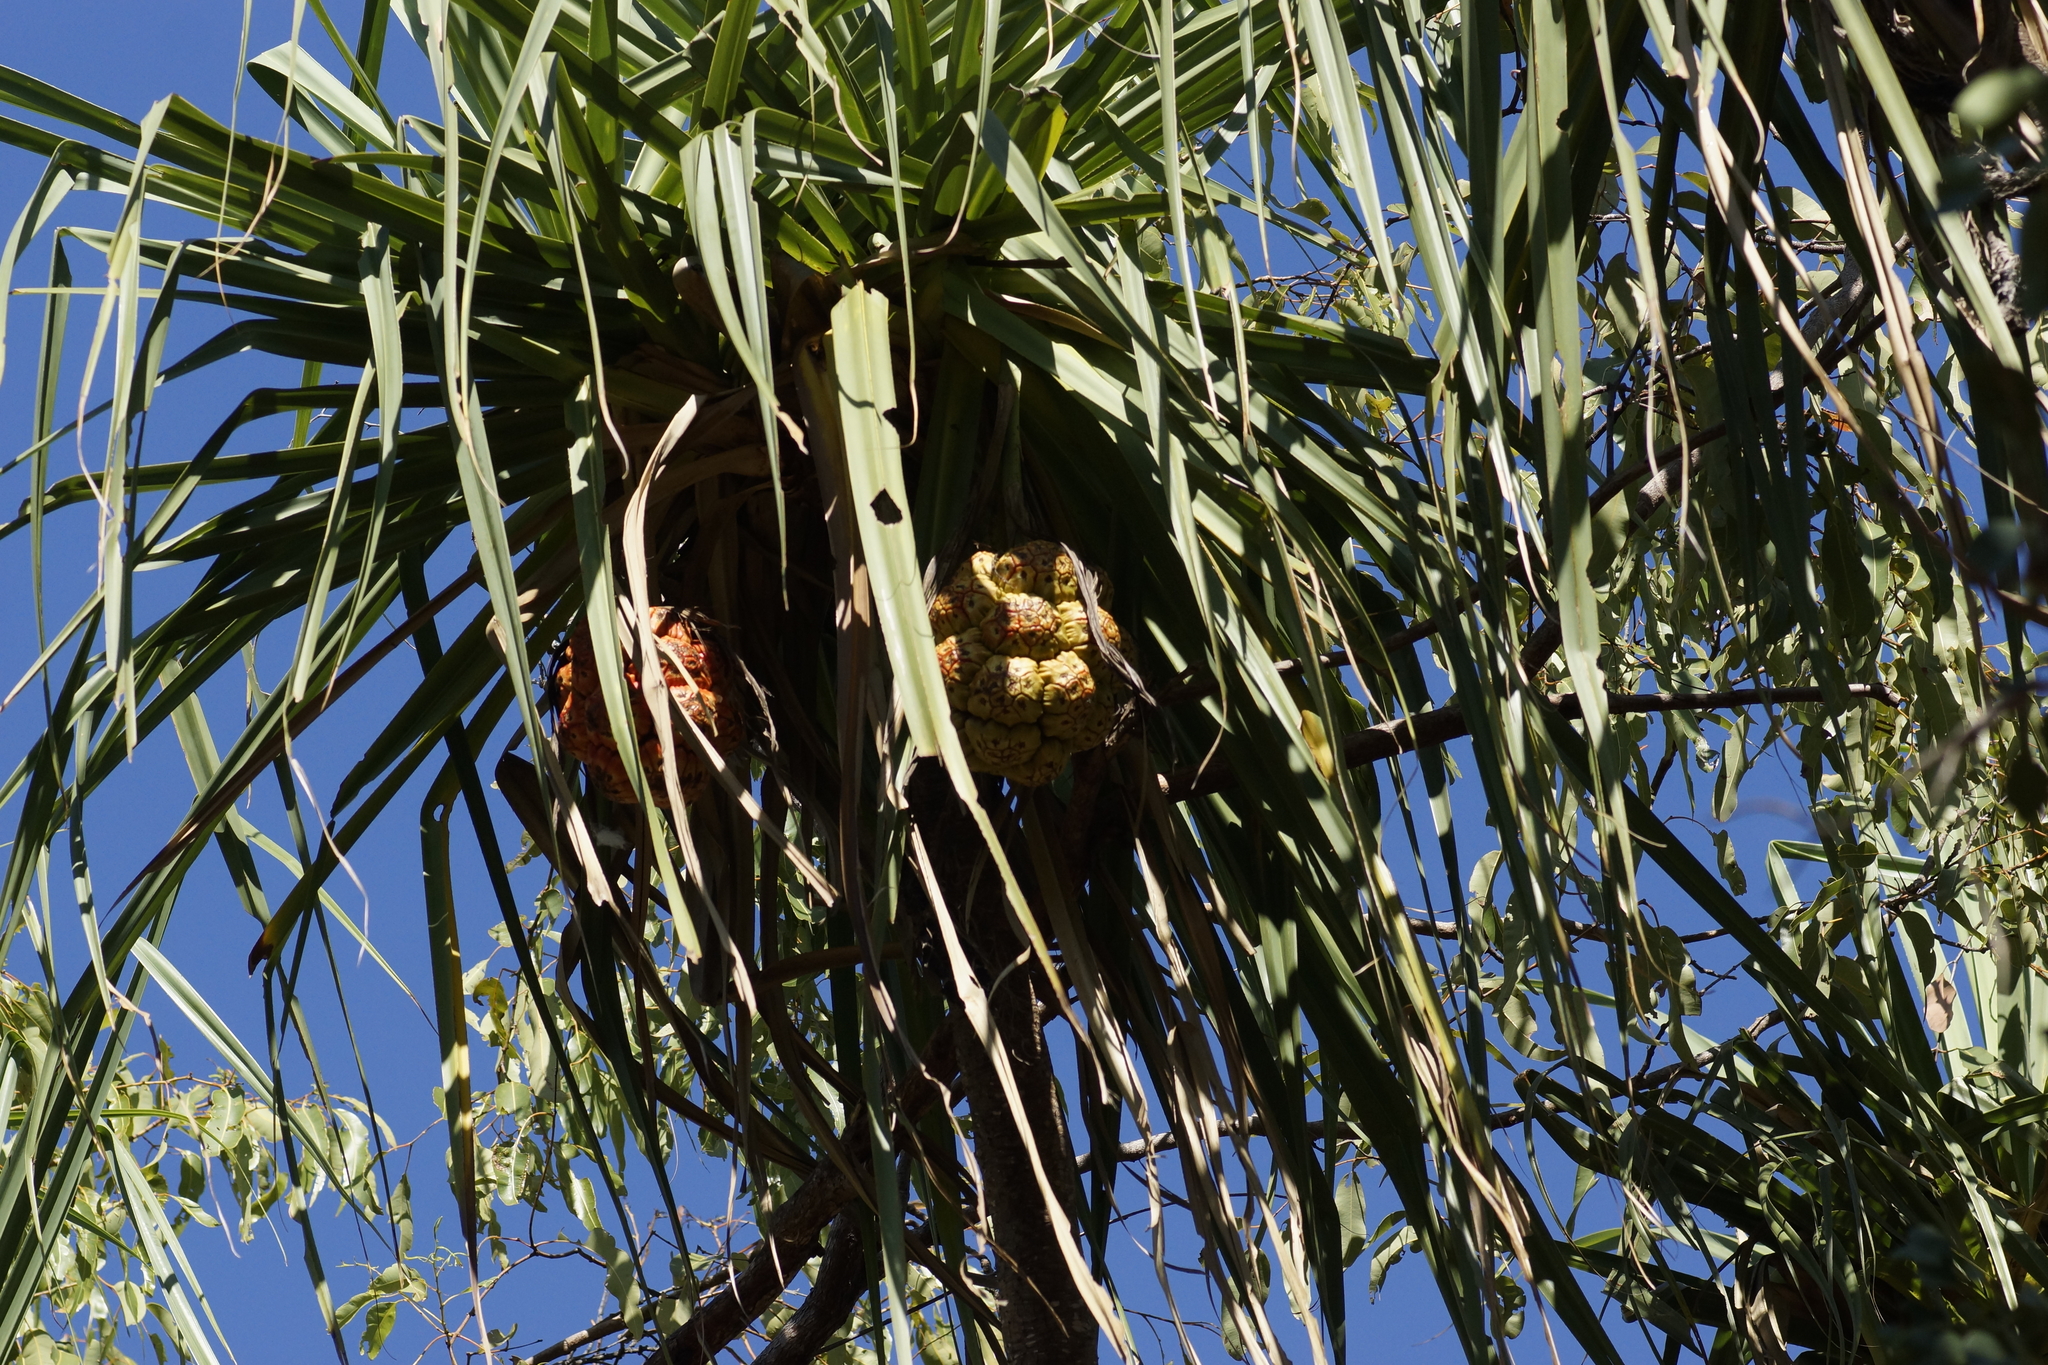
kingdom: Plantae
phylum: Tracheophyta
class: Liliopsida
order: Pandanales
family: Pandanaceae
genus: Pandanus
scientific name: Pandanus spiralis
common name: Screw-pine
